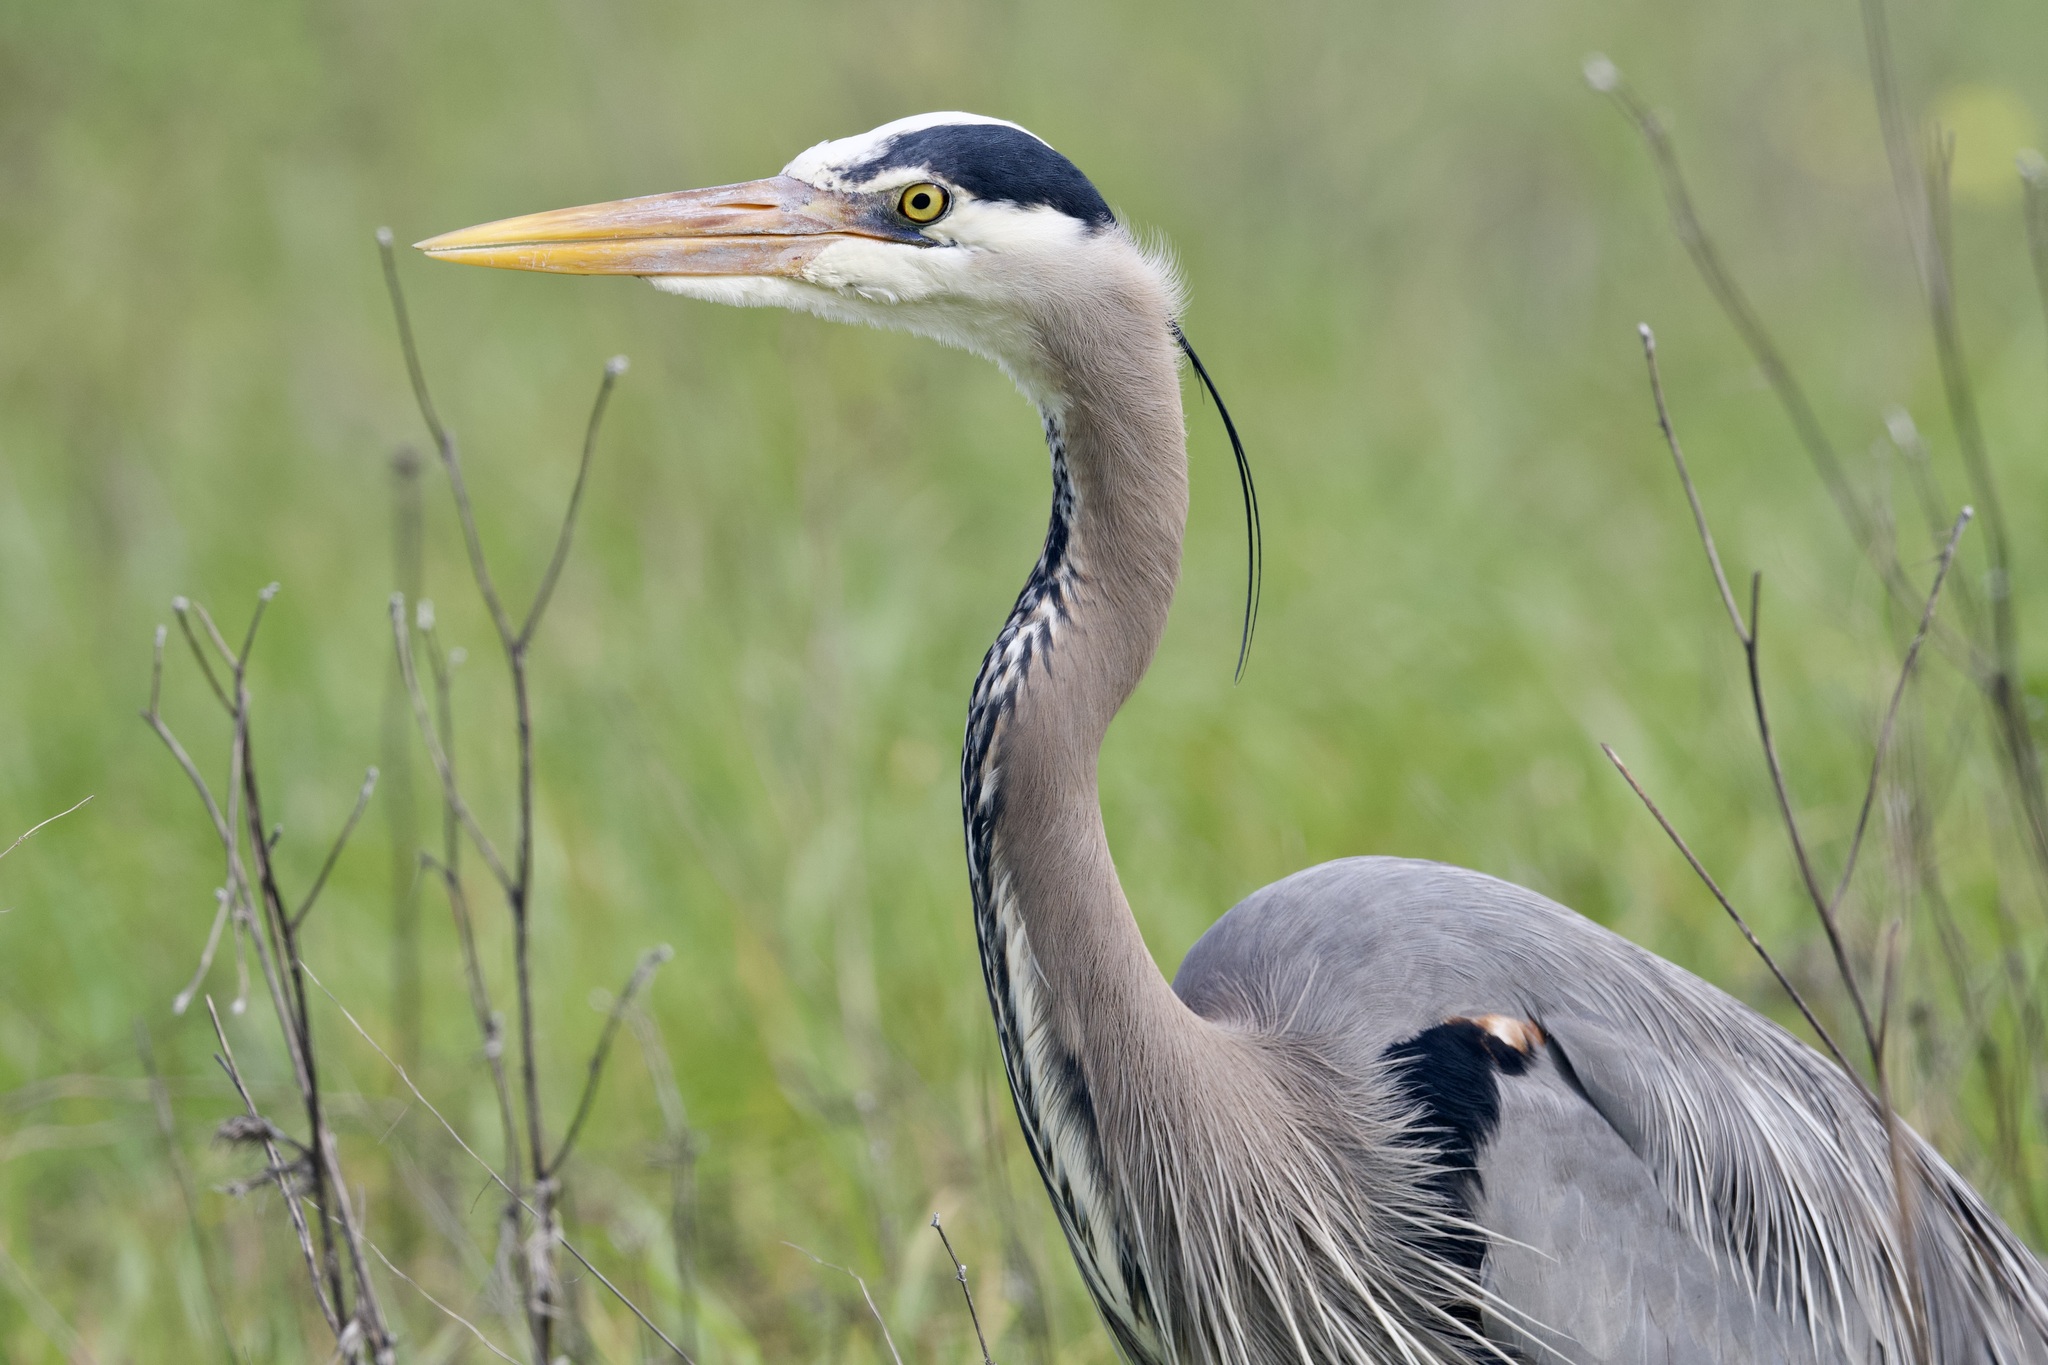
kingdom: Animalia
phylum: Chordata
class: Aves
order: Pelecaniformes
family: Ardeidae
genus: Ardea
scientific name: Ardea herodias
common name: Great blue heron
